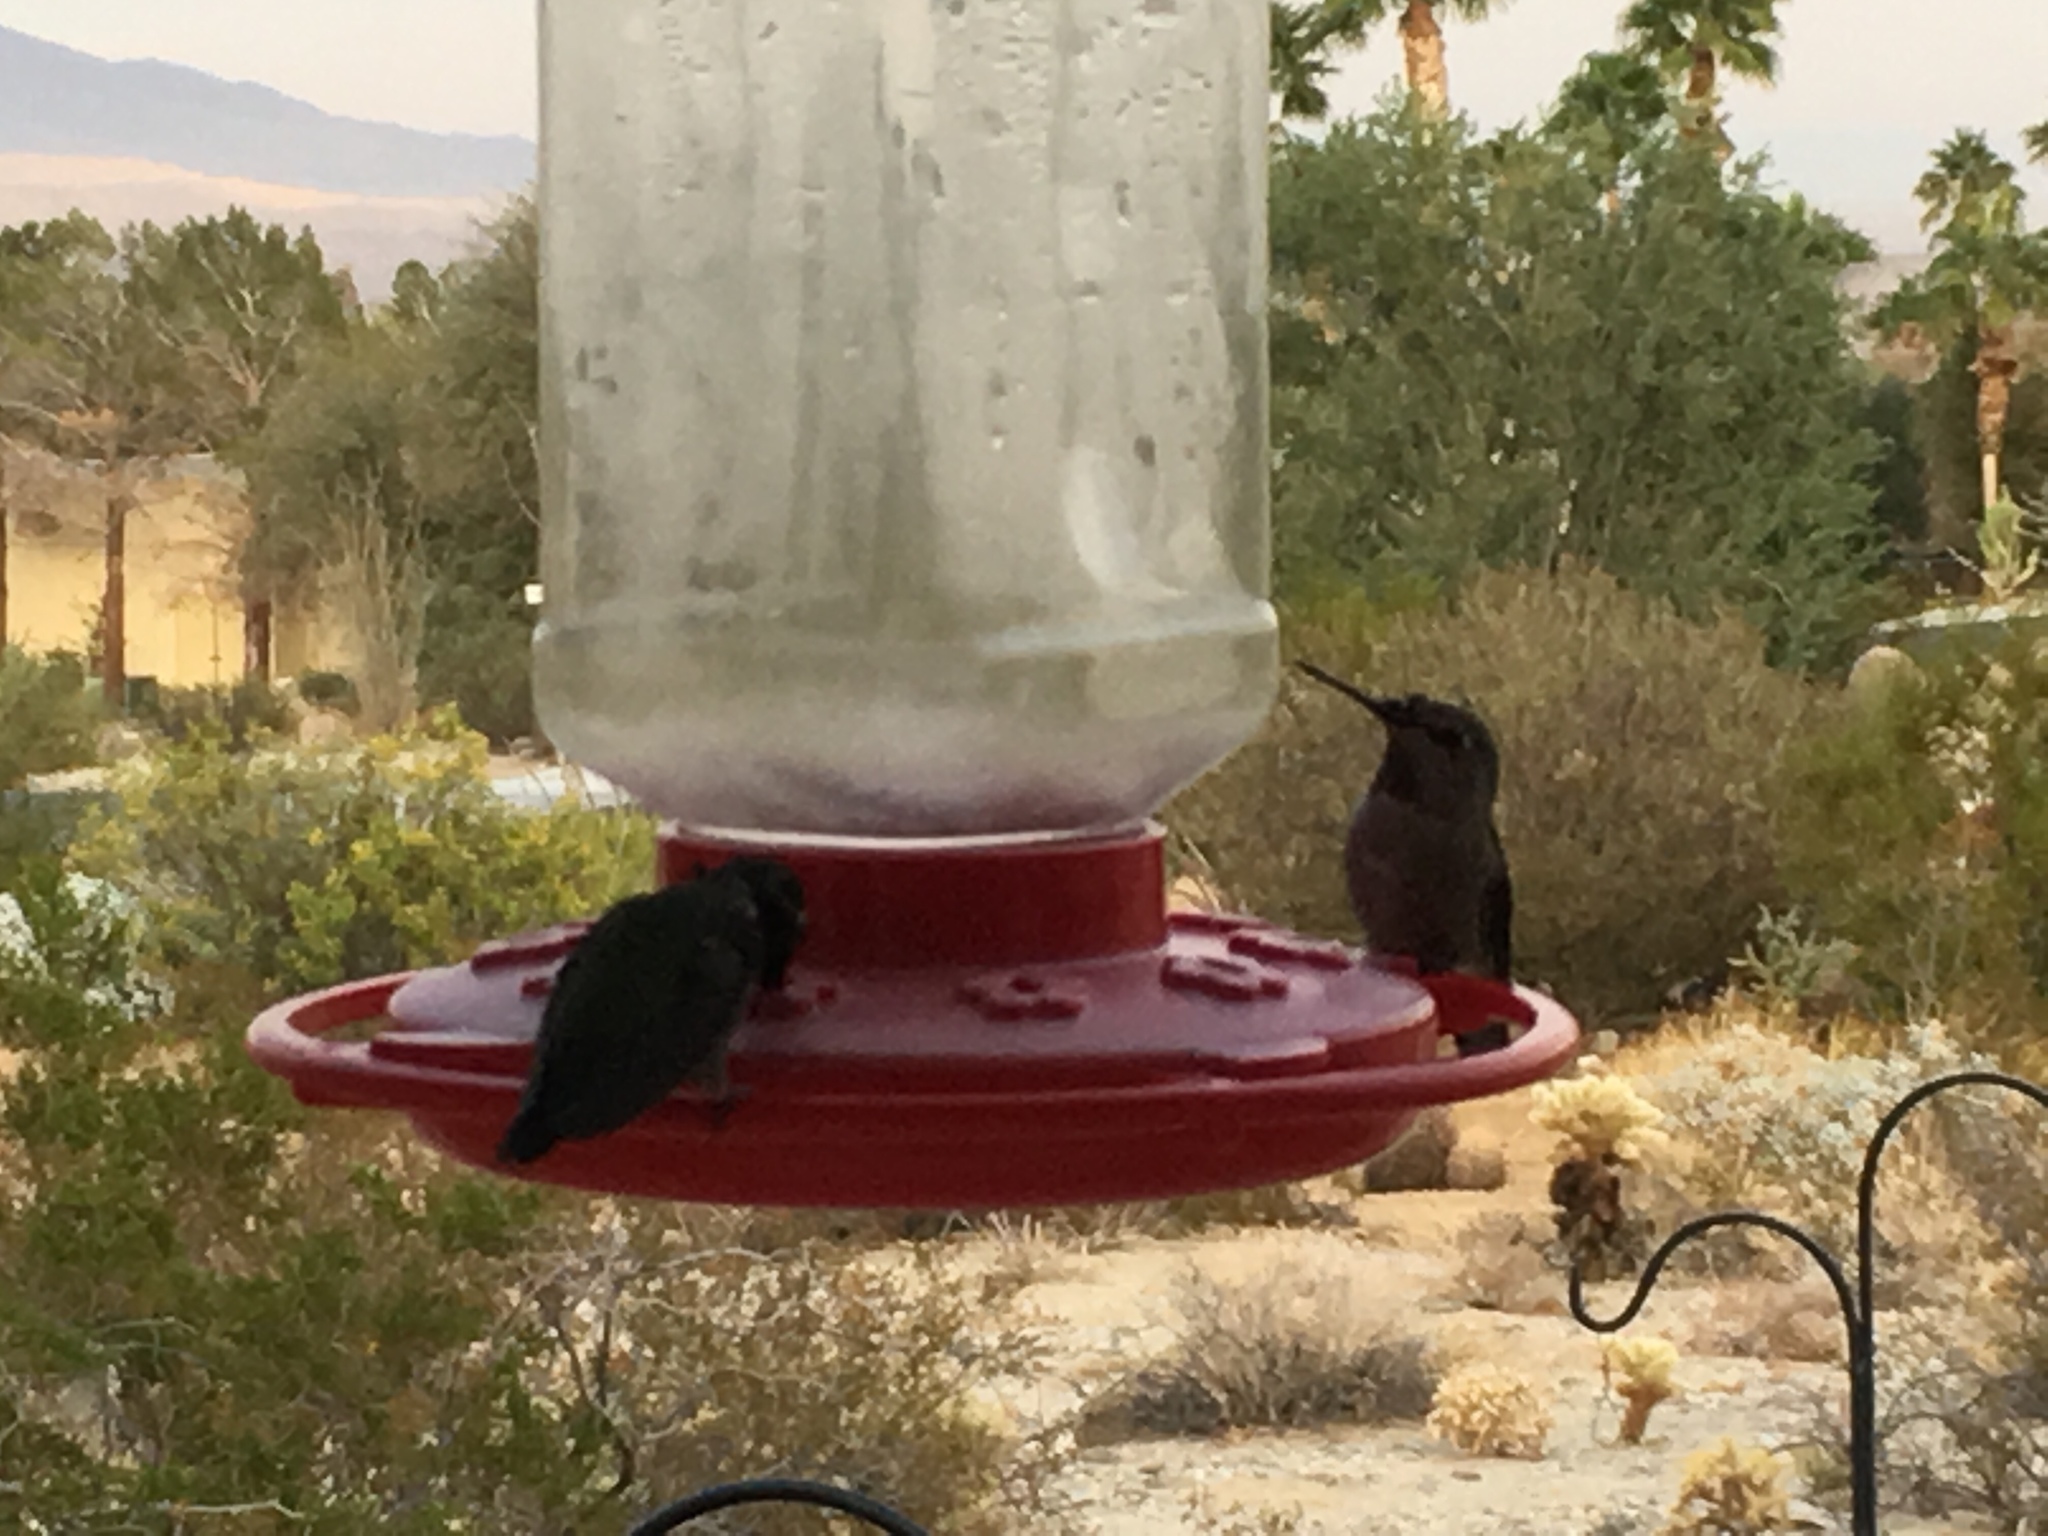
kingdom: Animalia
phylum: Chordata
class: Aves
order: Apodiformes
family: Trochilidae
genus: Calypte
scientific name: Calypte costae
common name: Costa's hummingbird
